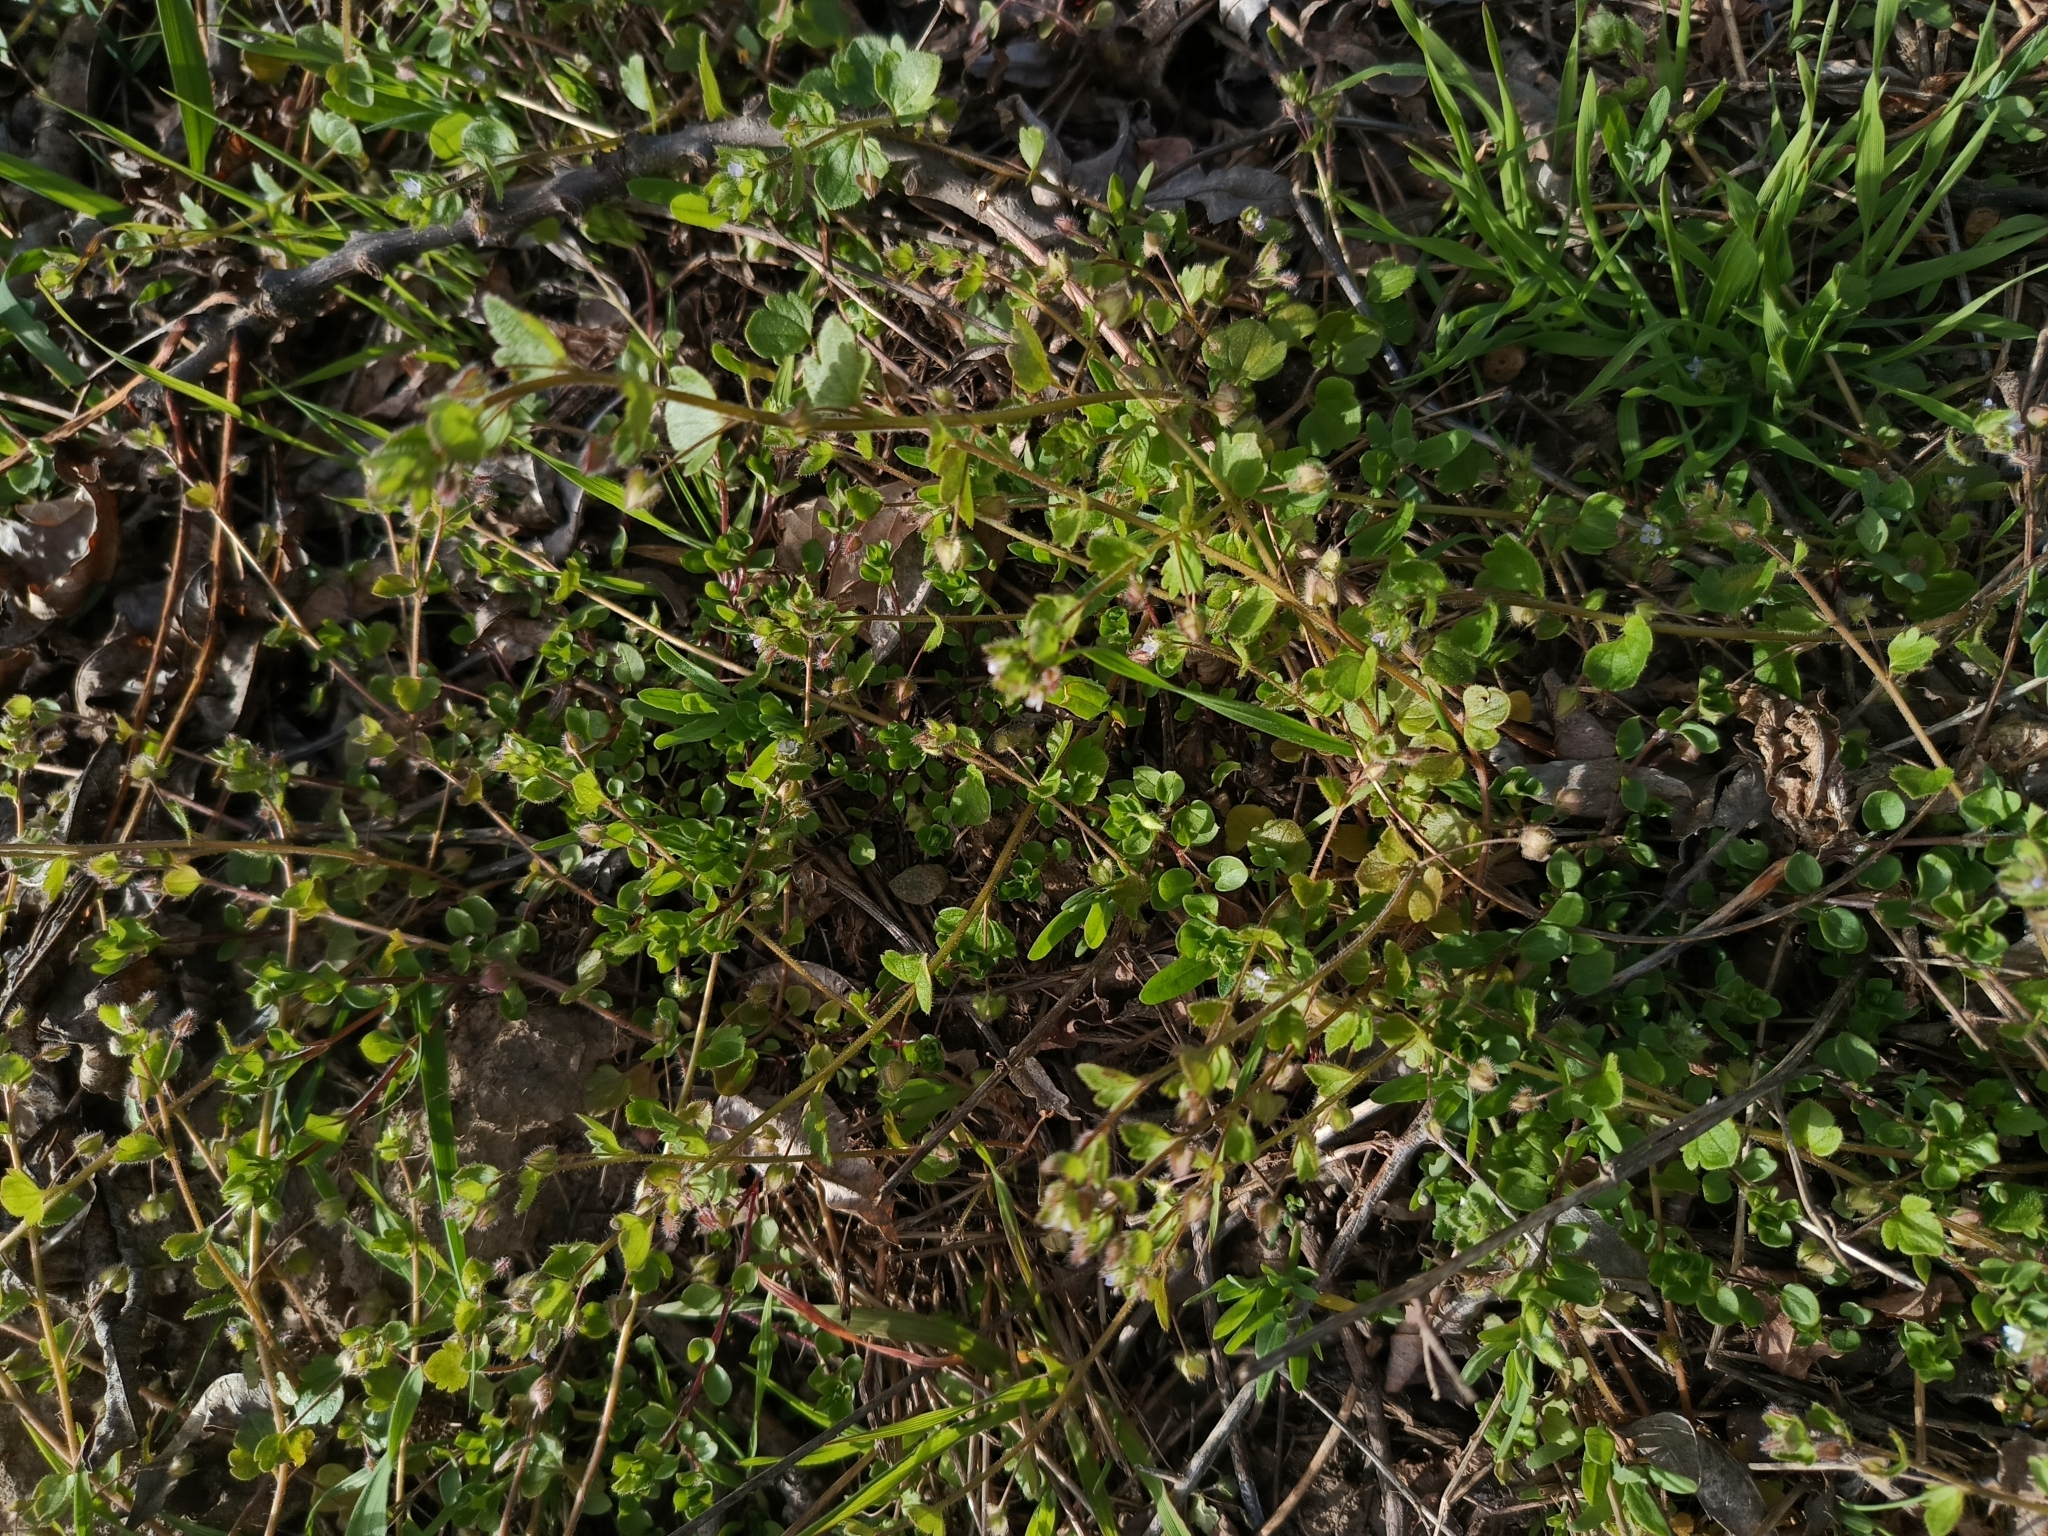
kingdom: Plantae
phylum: Tracheophyta
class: Magnoliopsida
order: Lamiales
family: Plantaginaceae
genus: Veronica
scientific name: Veronica sublobata
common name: False ivy-leaved speedwell
